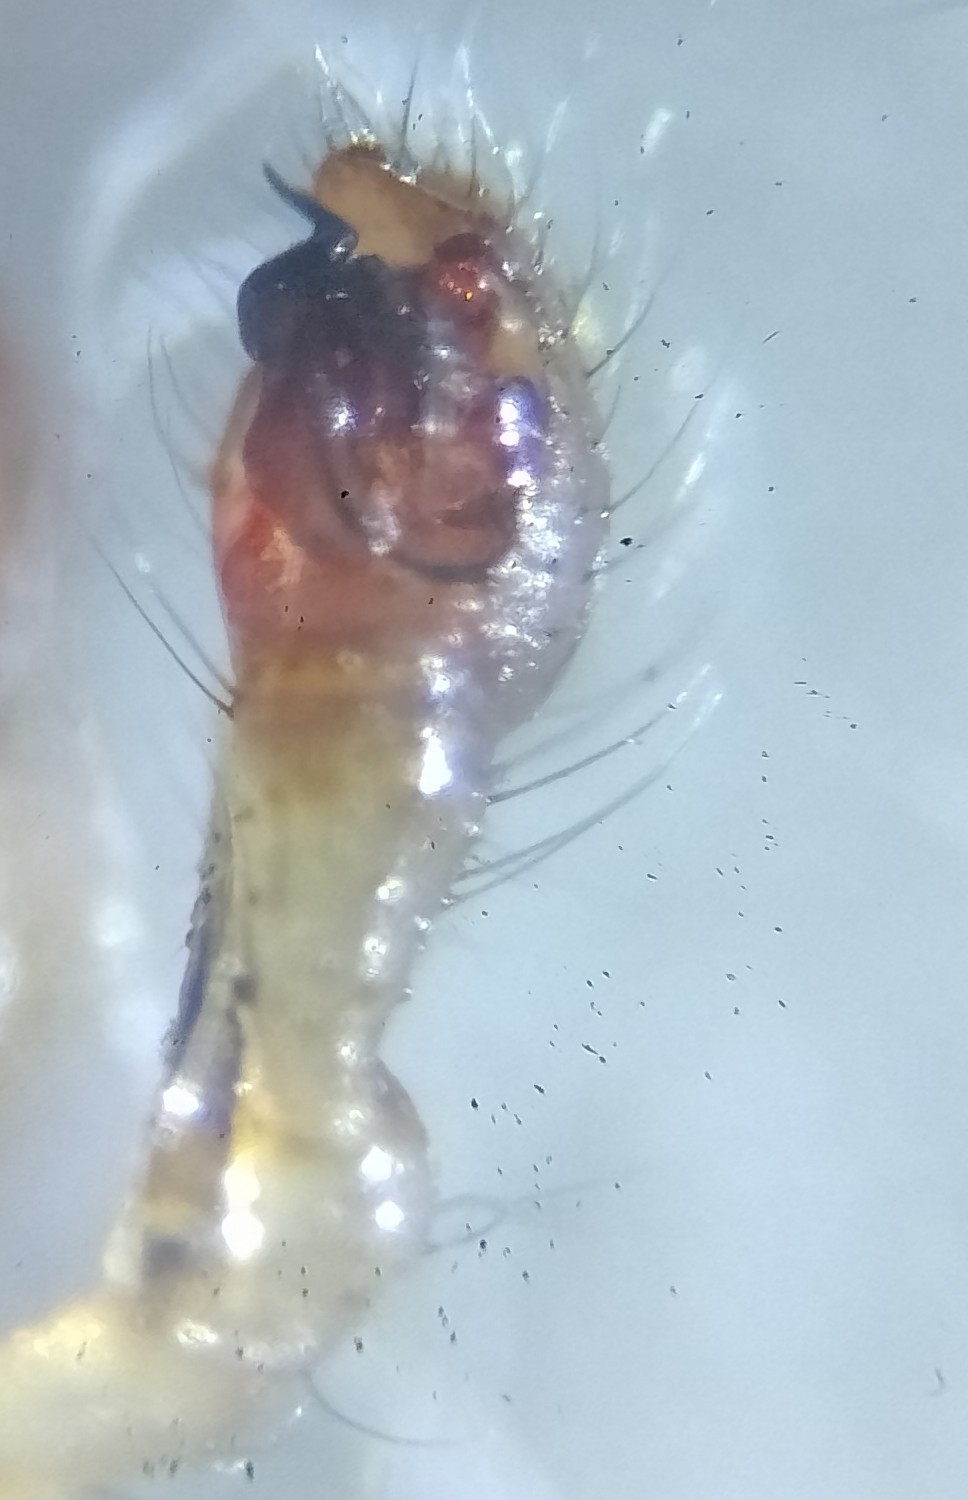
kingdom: Animalia
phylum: Arthropoda
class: Arachnida
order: Araneae
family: Theridiidae
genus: Enoplognatha
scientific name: Enoplognatha ovata
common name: Common candy-striped spider
